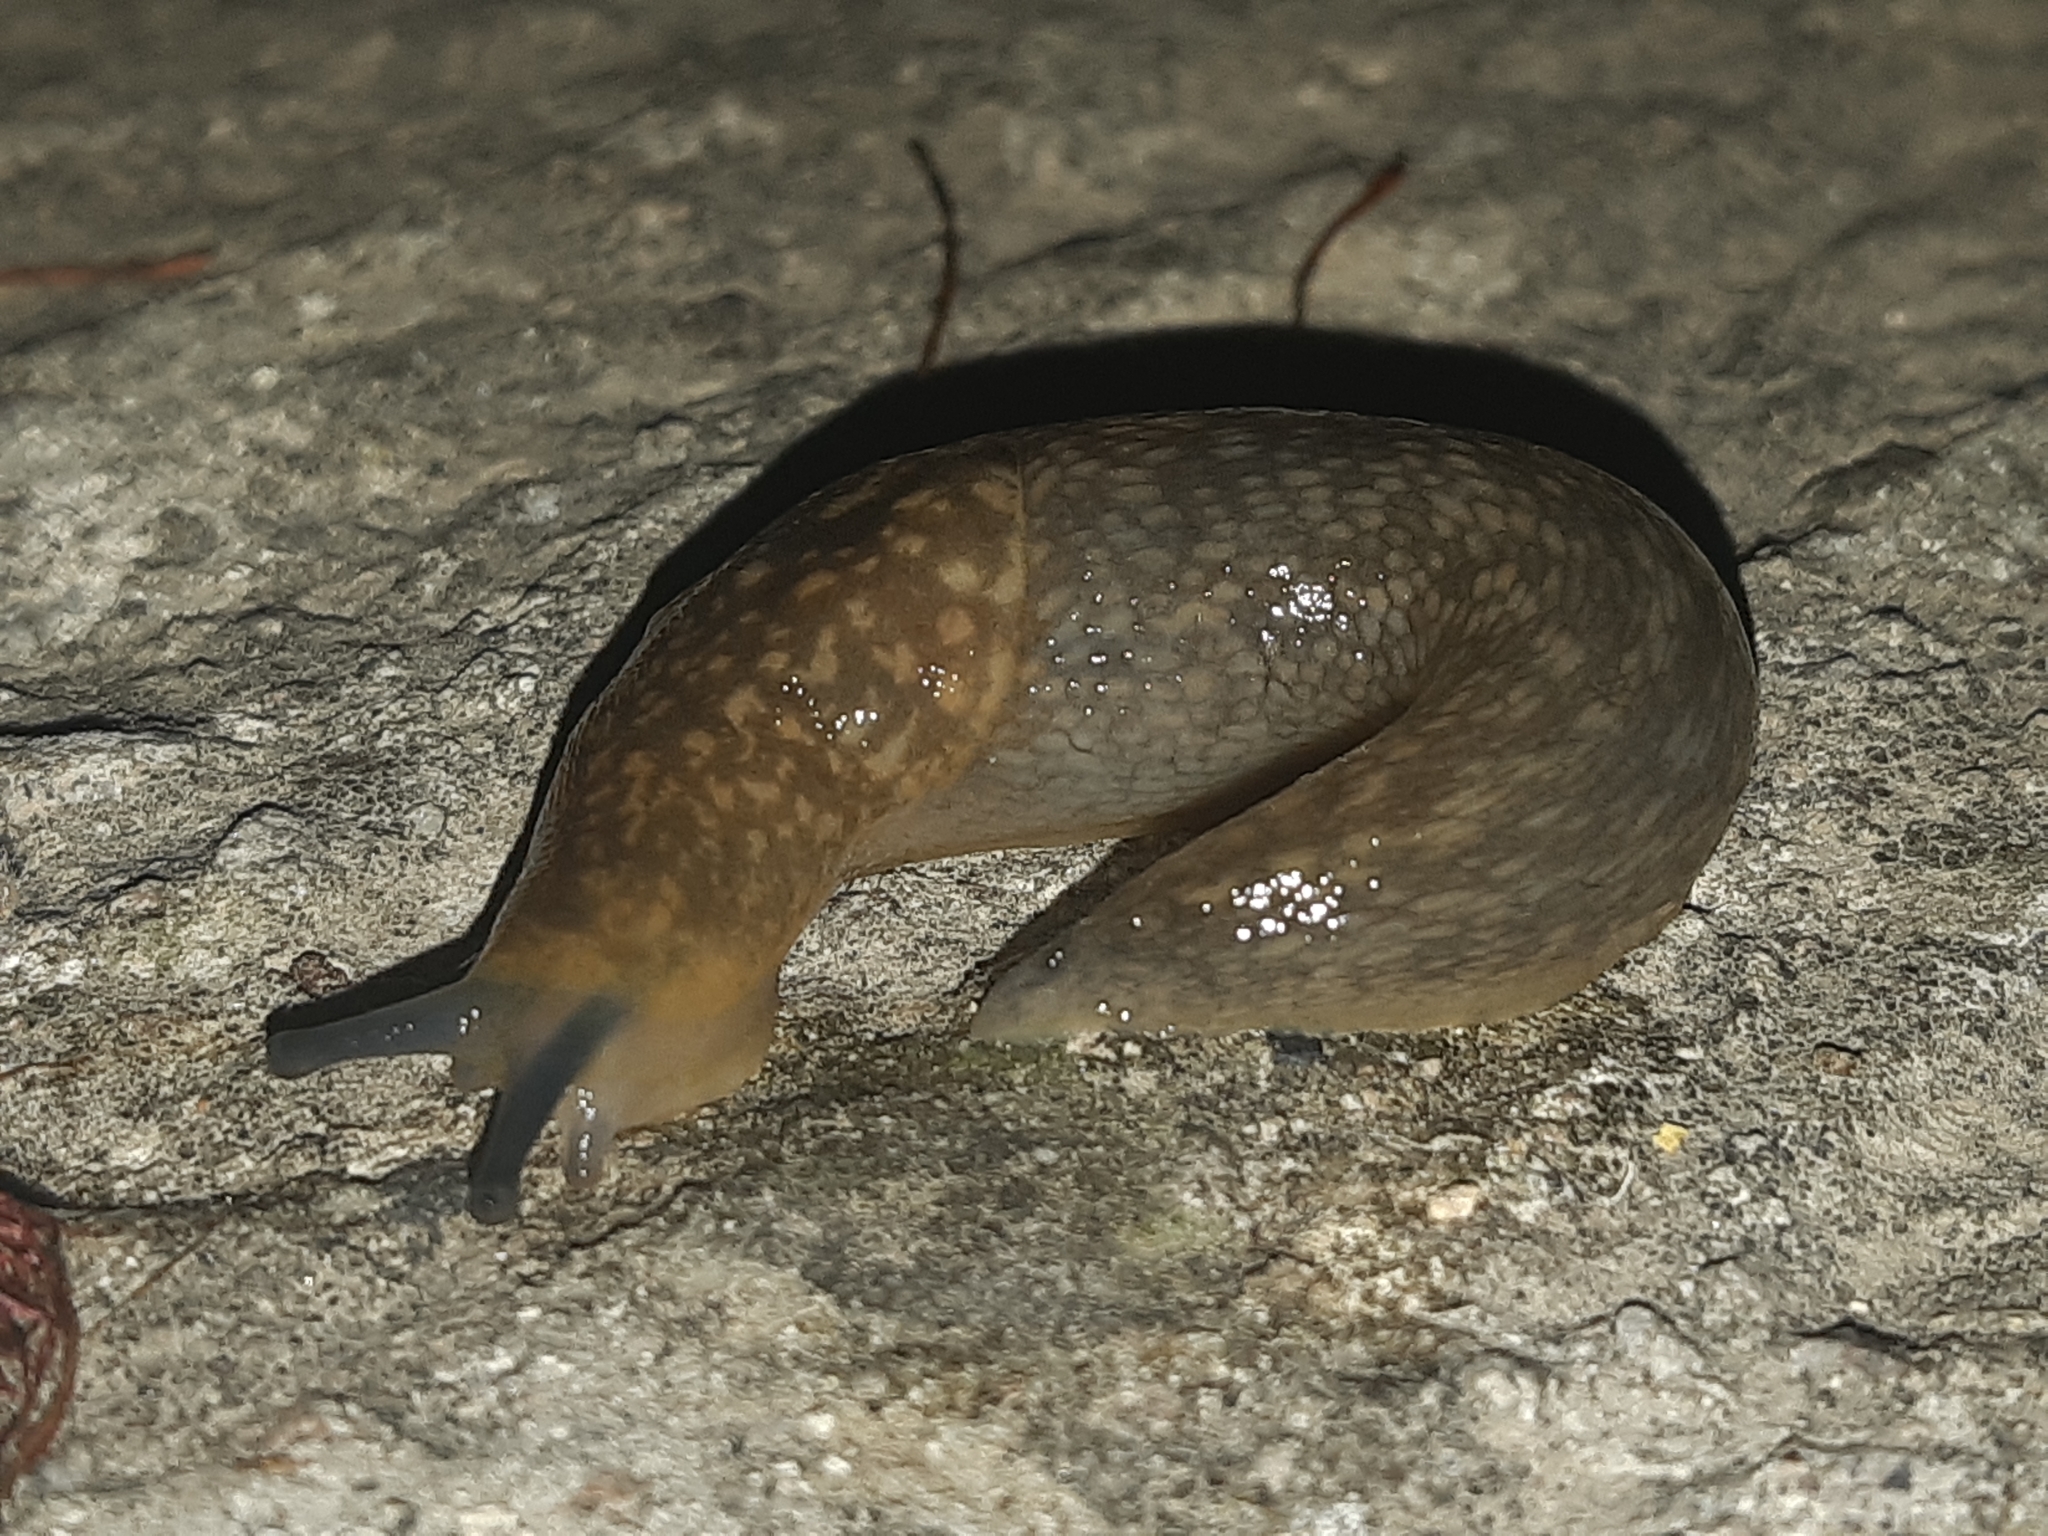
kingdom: Animalia
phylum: Mollusca
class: Gastropoda
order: Stylommatophora
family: Limacidae
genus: Limacus
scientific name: Limacus flavus
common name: Yellow gardenslug
